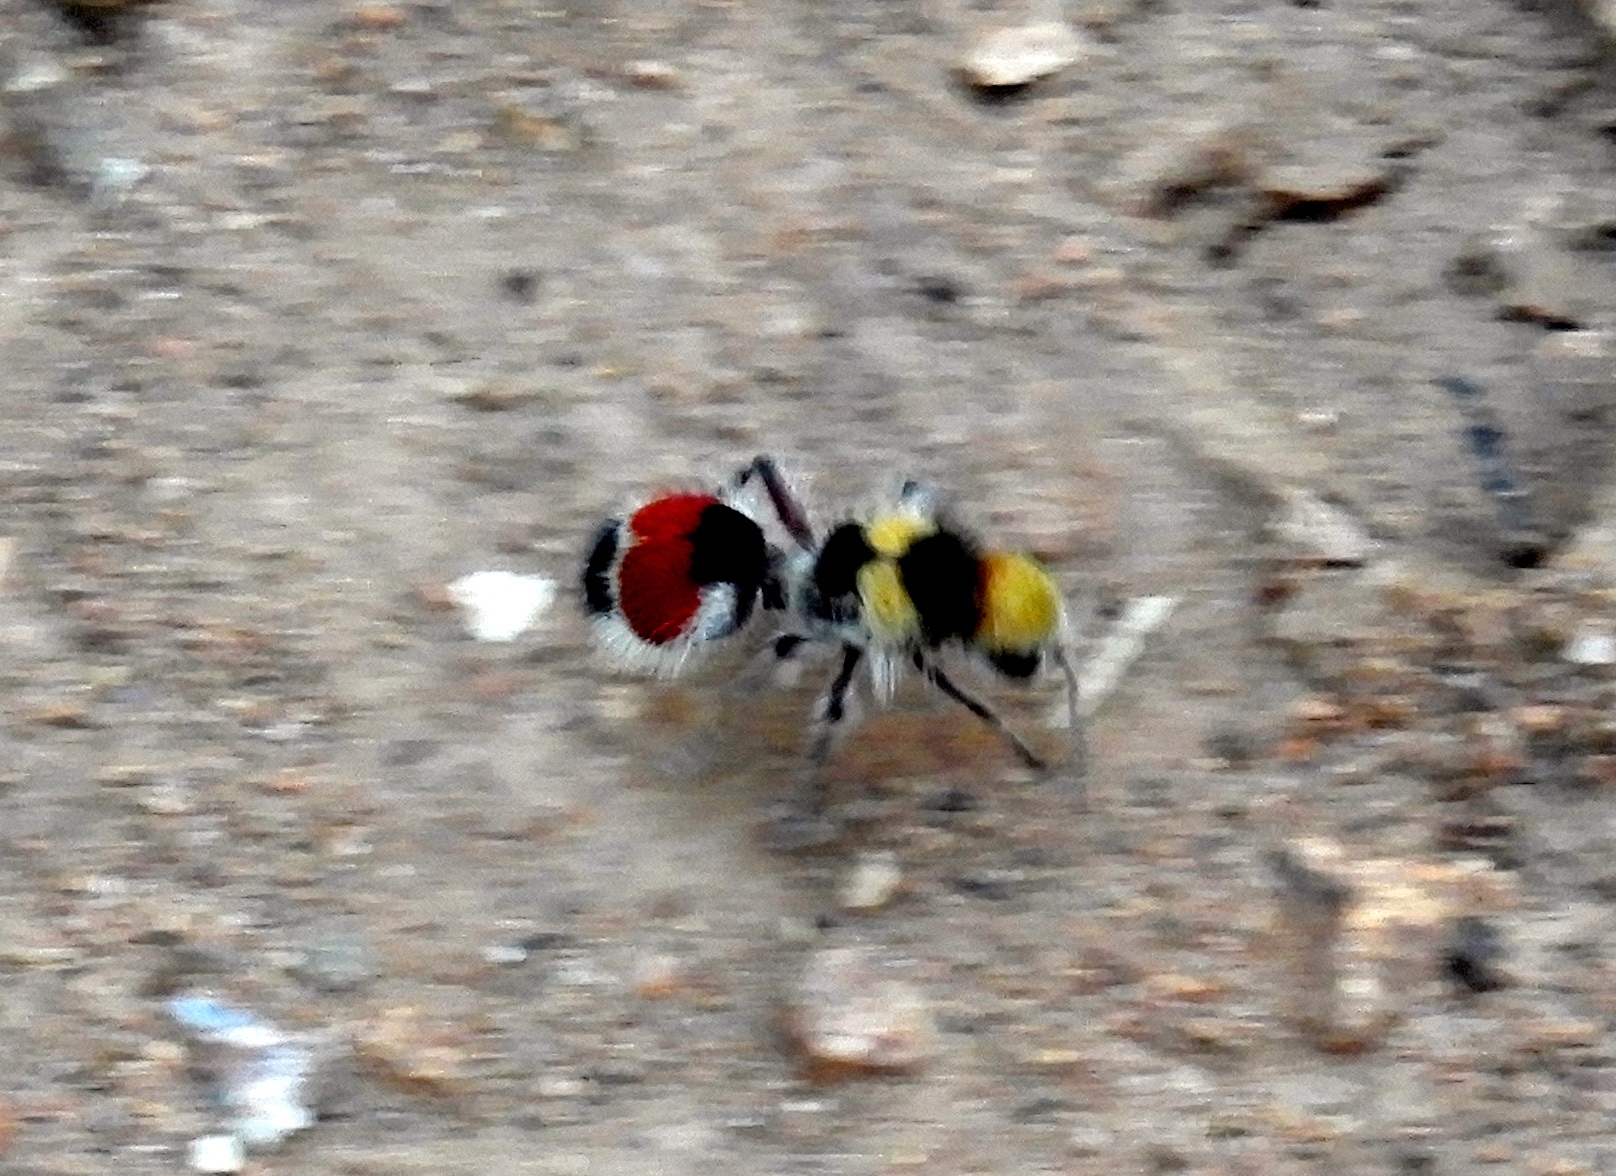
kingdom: Animalia
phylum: Arthropoda
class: Insecta
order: Hymenoptera
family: Mutillidae
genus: Dasymutilla
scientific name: Dasymutilla foxi
